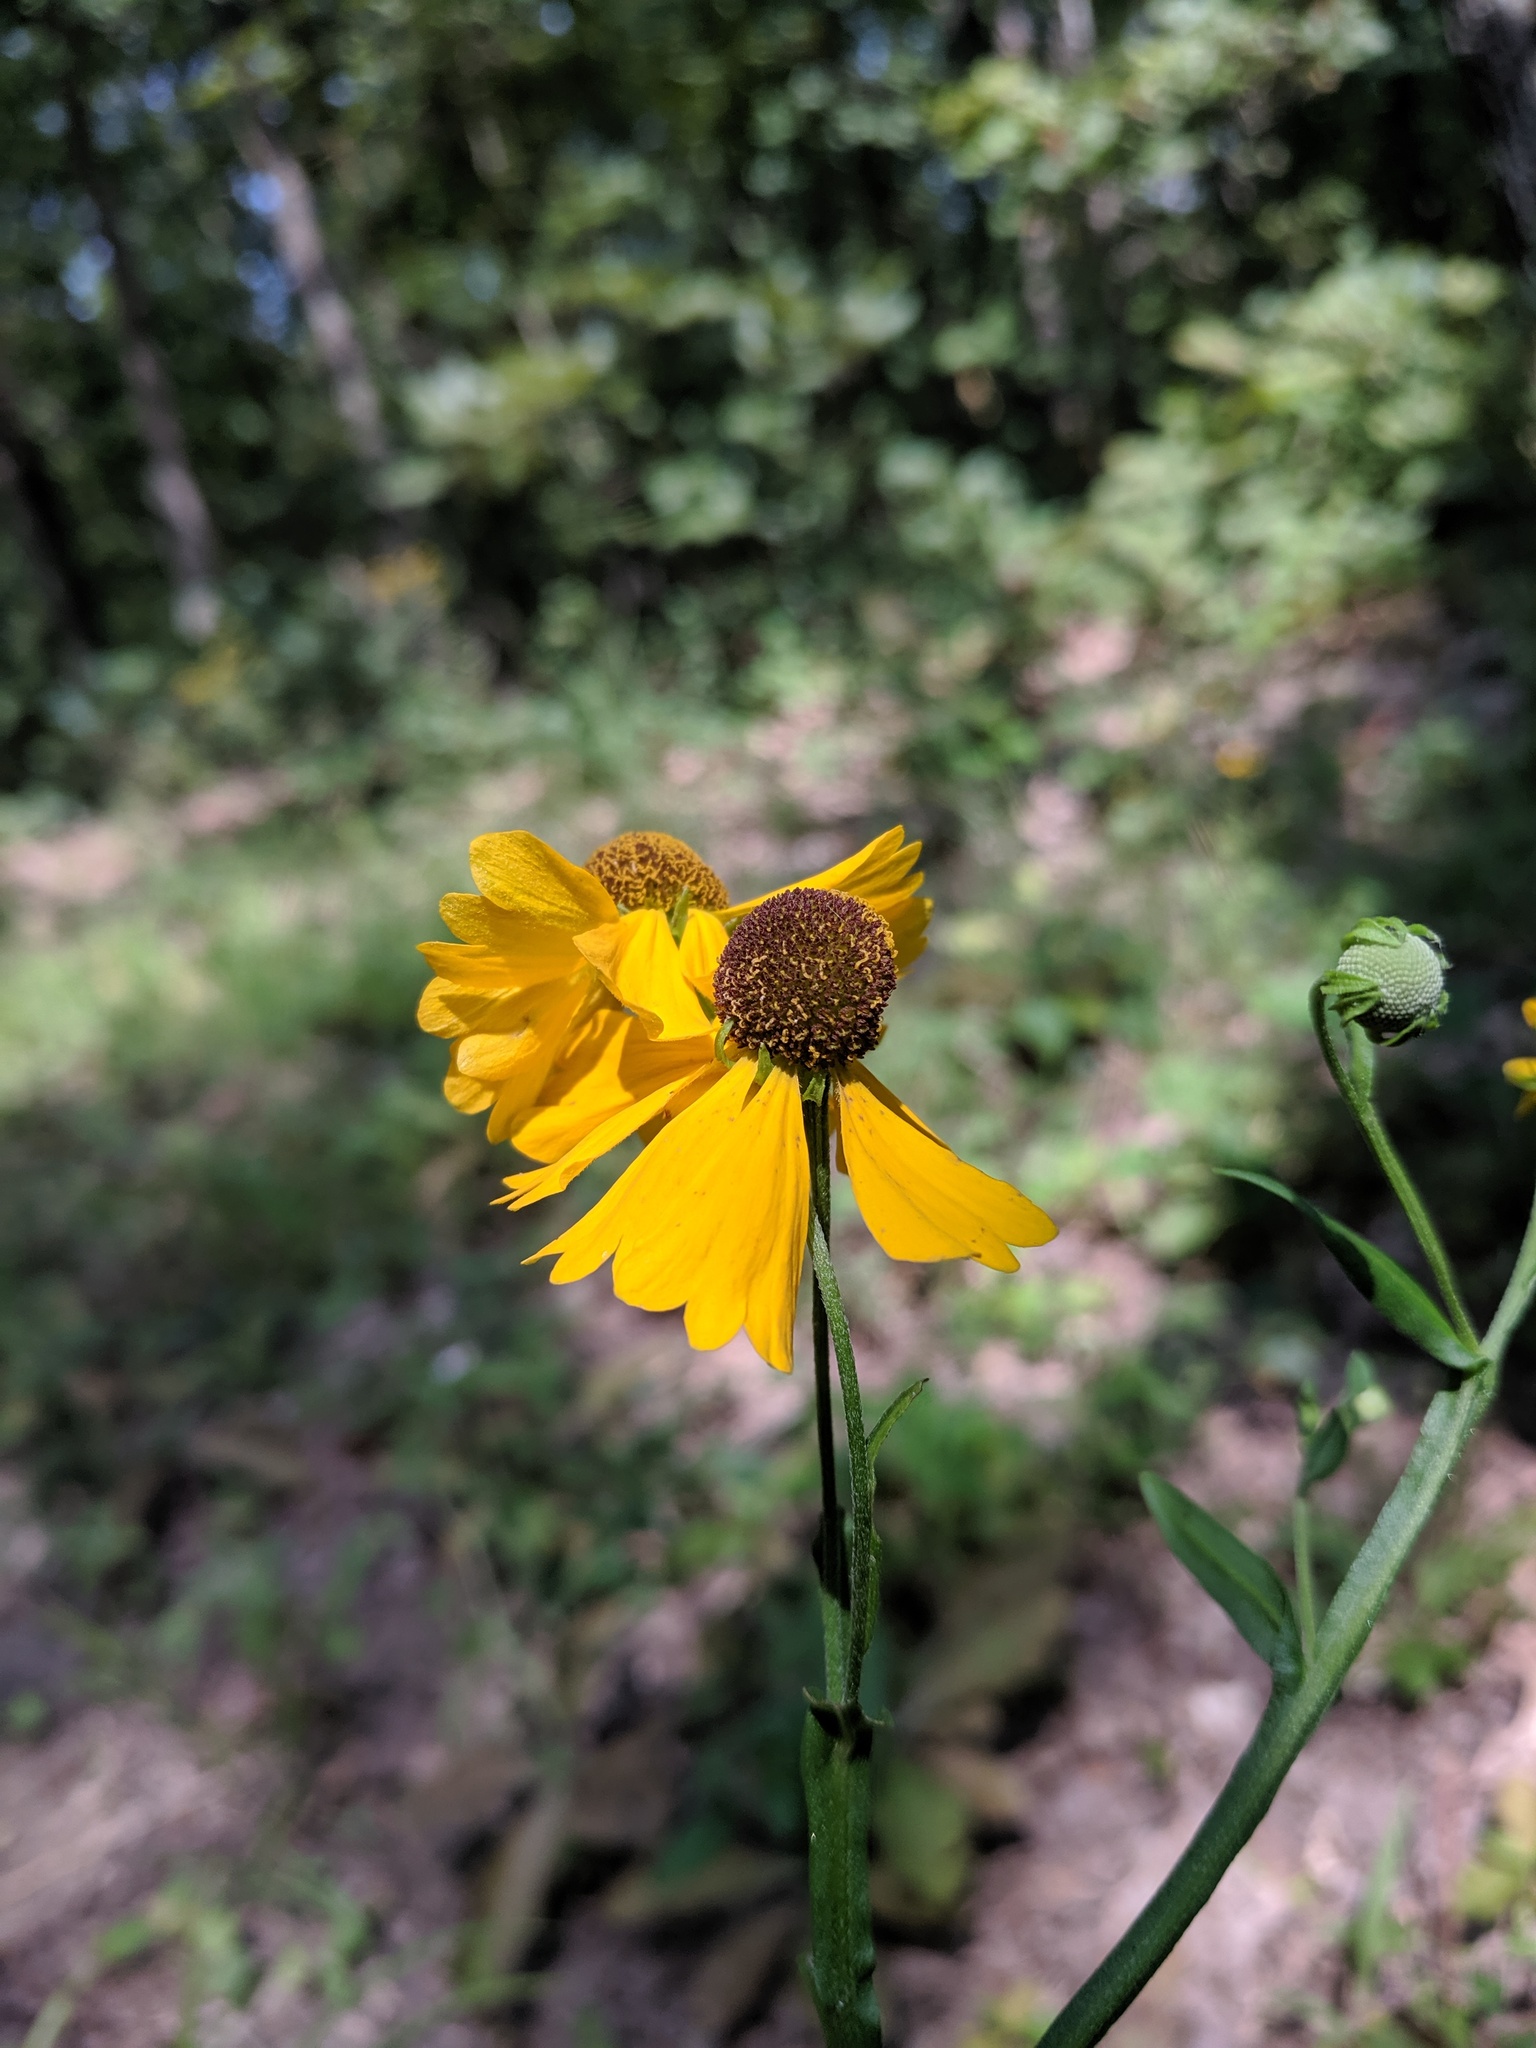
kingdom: Plantae
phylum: Tracheophyta
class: Magnoliopsida
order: Asterales
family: Asteraceae
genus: Helenium
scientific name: Helenium flexuosum
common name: Naked-flowered sneezeweed
